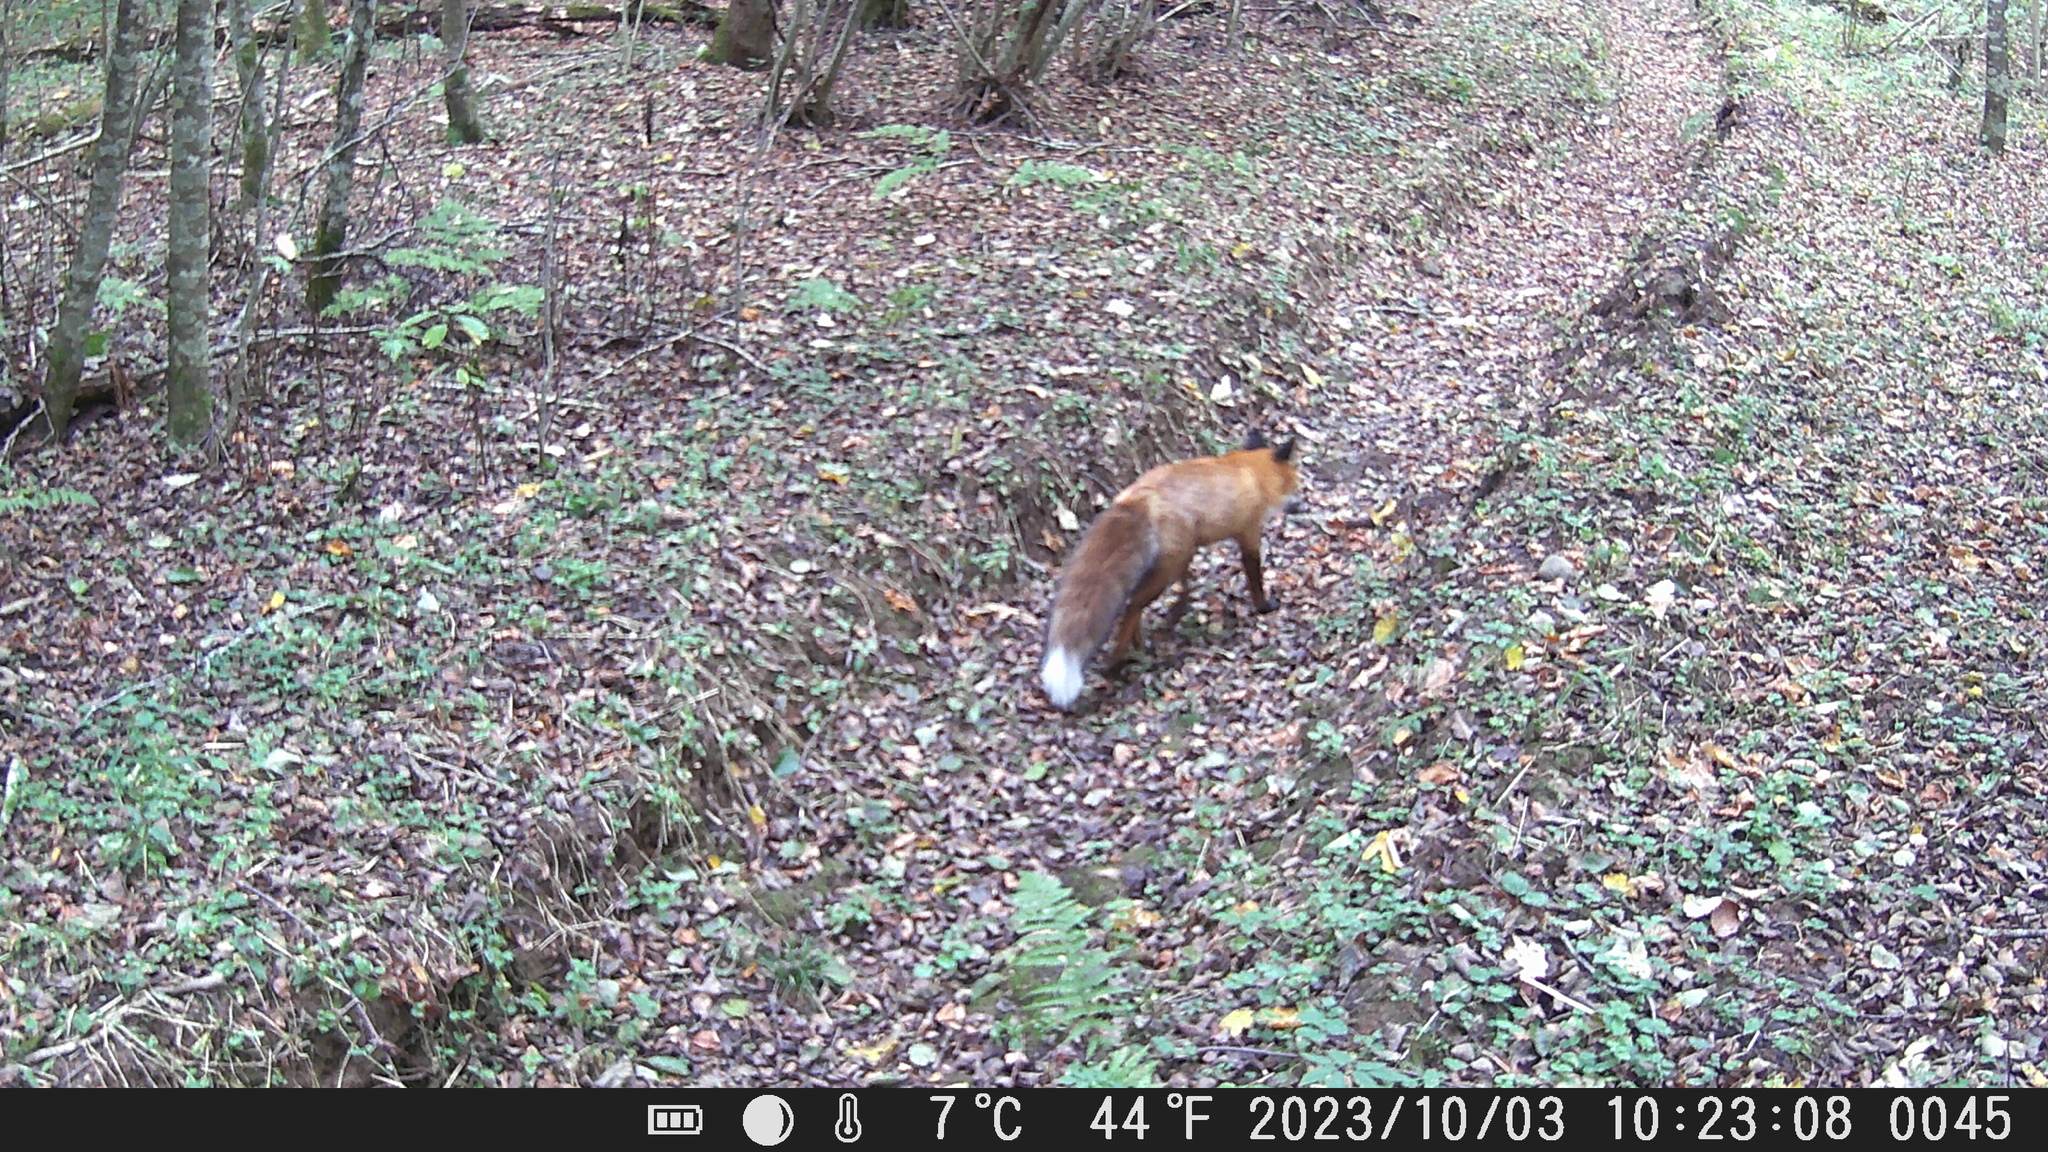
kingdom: Animalia
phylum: Chordata
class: Mammalia
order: Carnivora
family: Canidae
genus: Vulpes
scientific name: Vulpes vulpes
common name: Red fox
